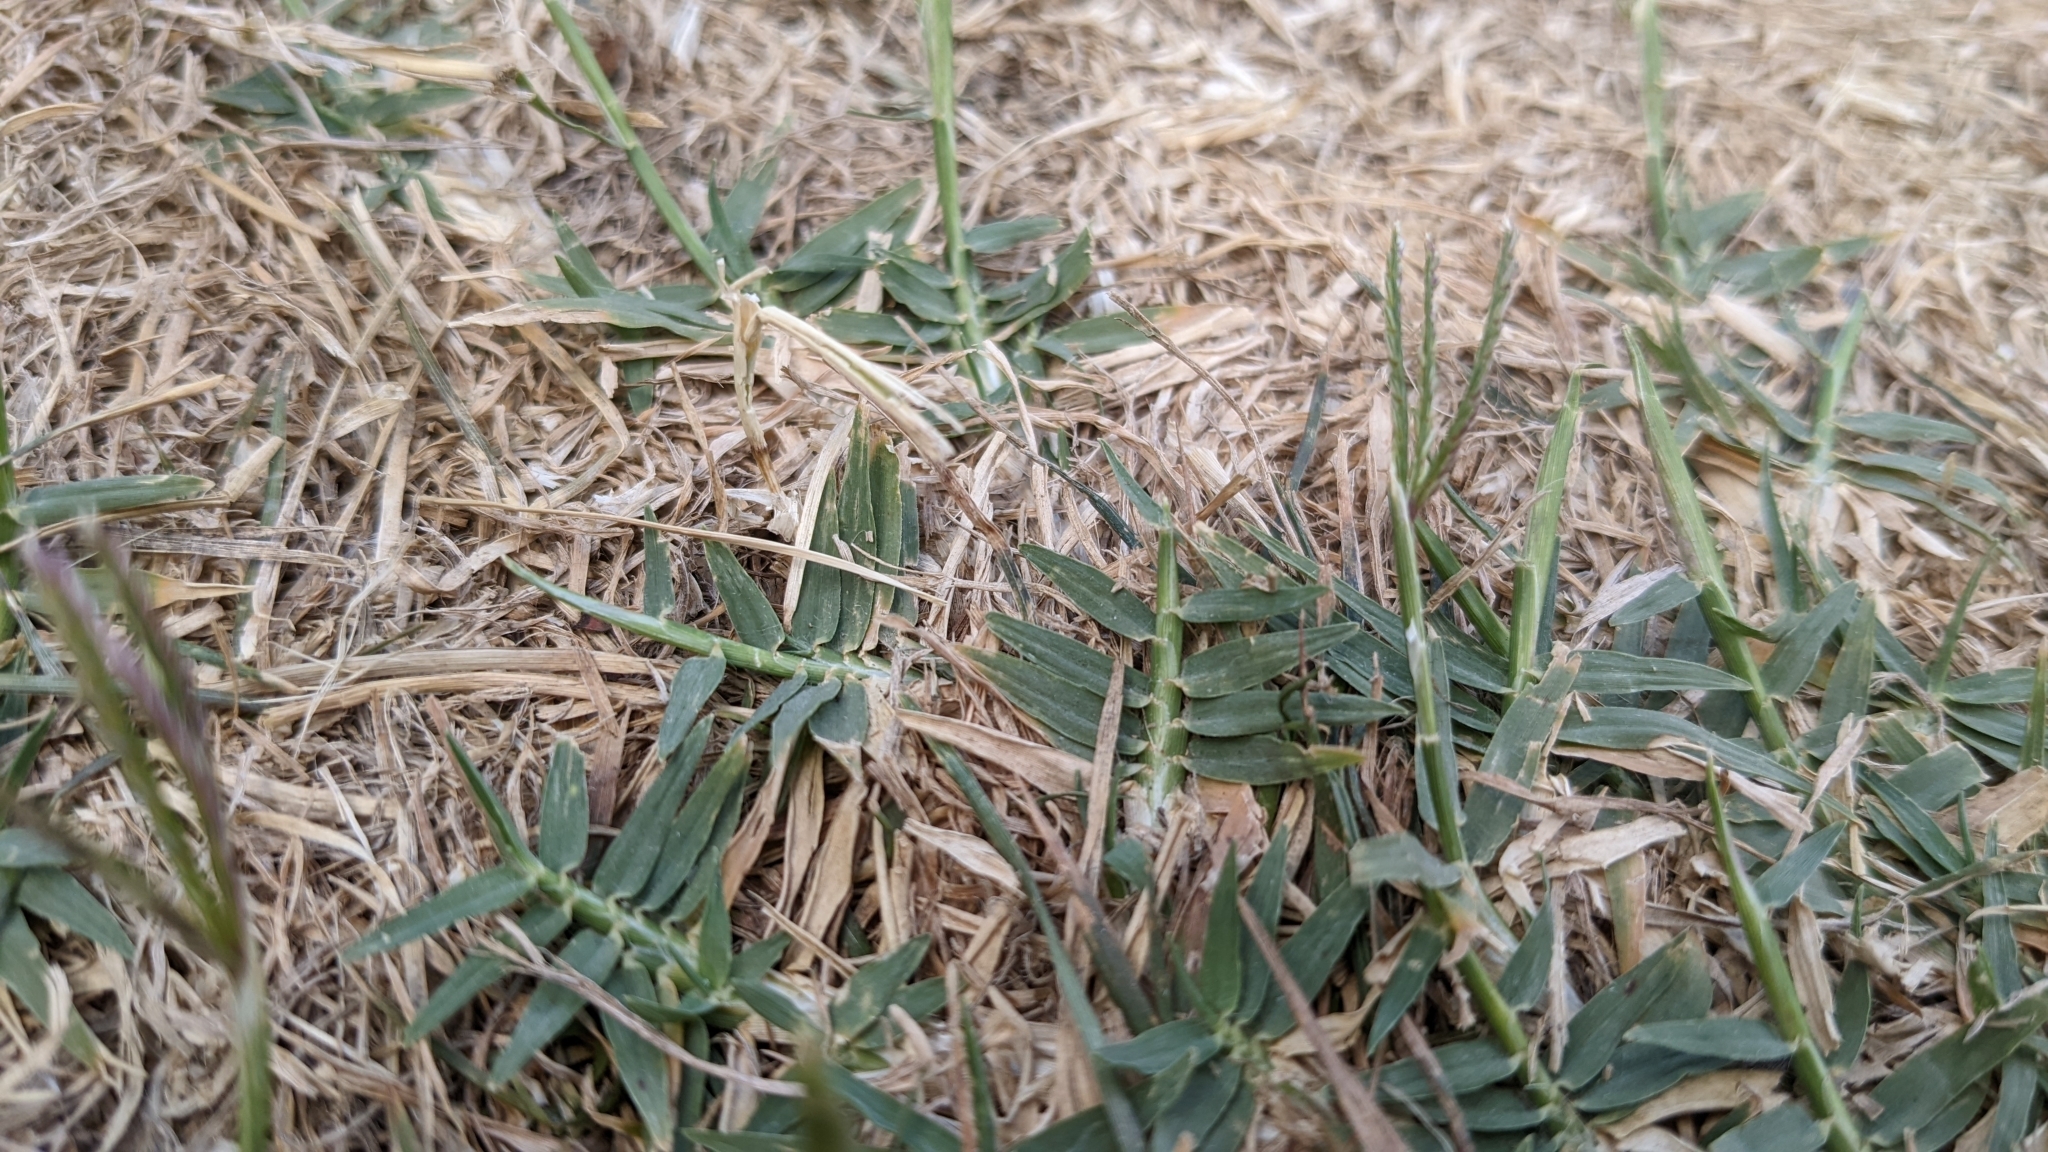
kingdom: Plantae
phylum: Tracheophyta
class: Liliopsida
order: Poales
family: Poaceae
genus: Cynodon
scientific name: Cynodon dactylon
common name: Bermuda grass
